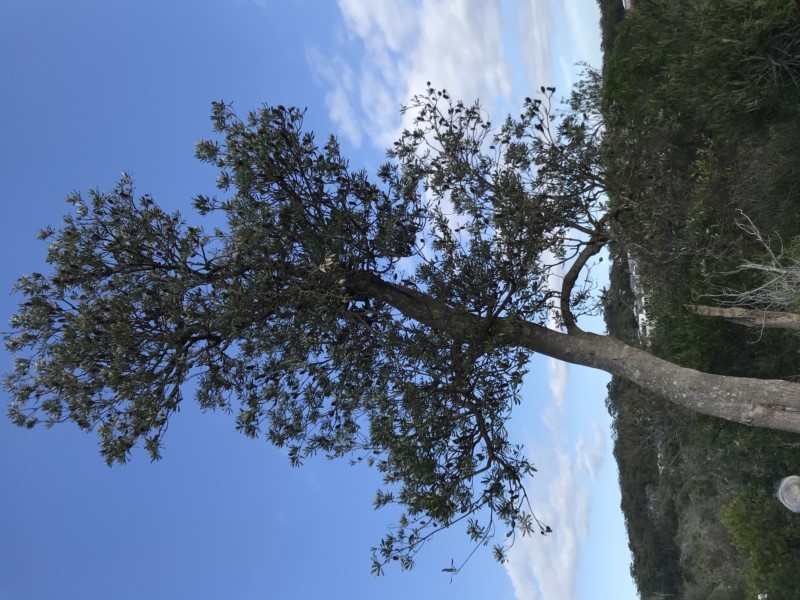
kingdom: Plantae
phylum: Tracheophyta
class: Magnoliopsida
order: Proteales
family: Proteaceae
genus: Banksia
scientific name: Banksia integrifolia
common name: White-honeysuckle
